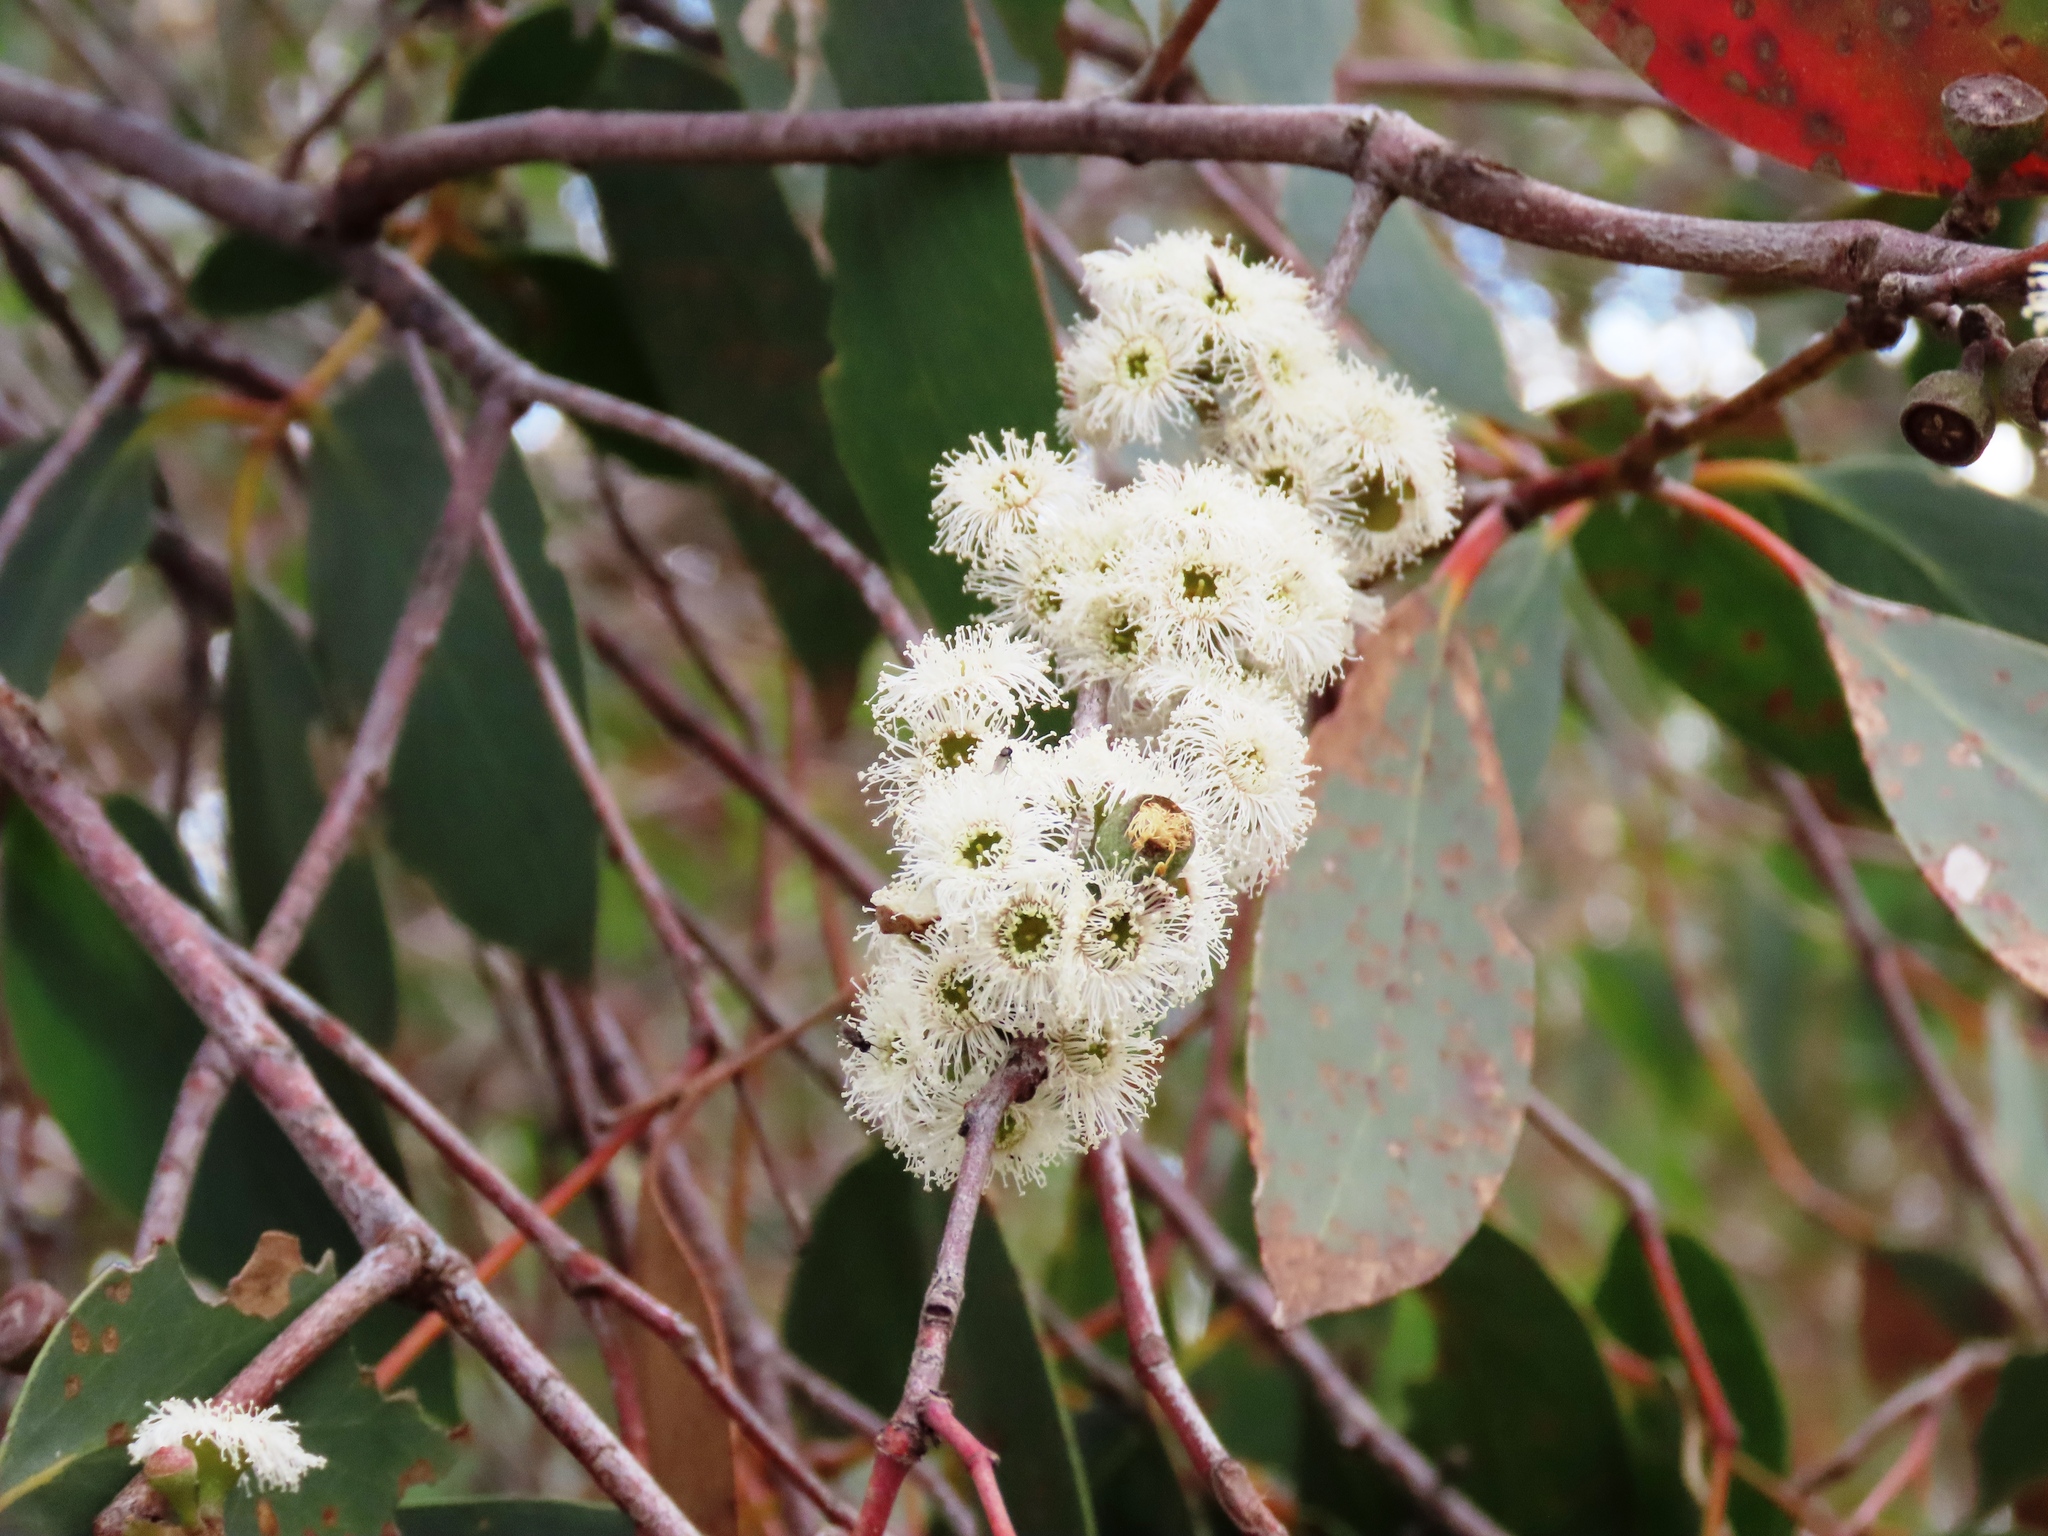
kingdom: Plantae
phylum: Tracheophyta
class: Magnoliopsida
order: Myrtales
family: Myrtaceae
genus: Eucalyptus
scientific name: Eucalyptus dives
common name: Blue peppermint
